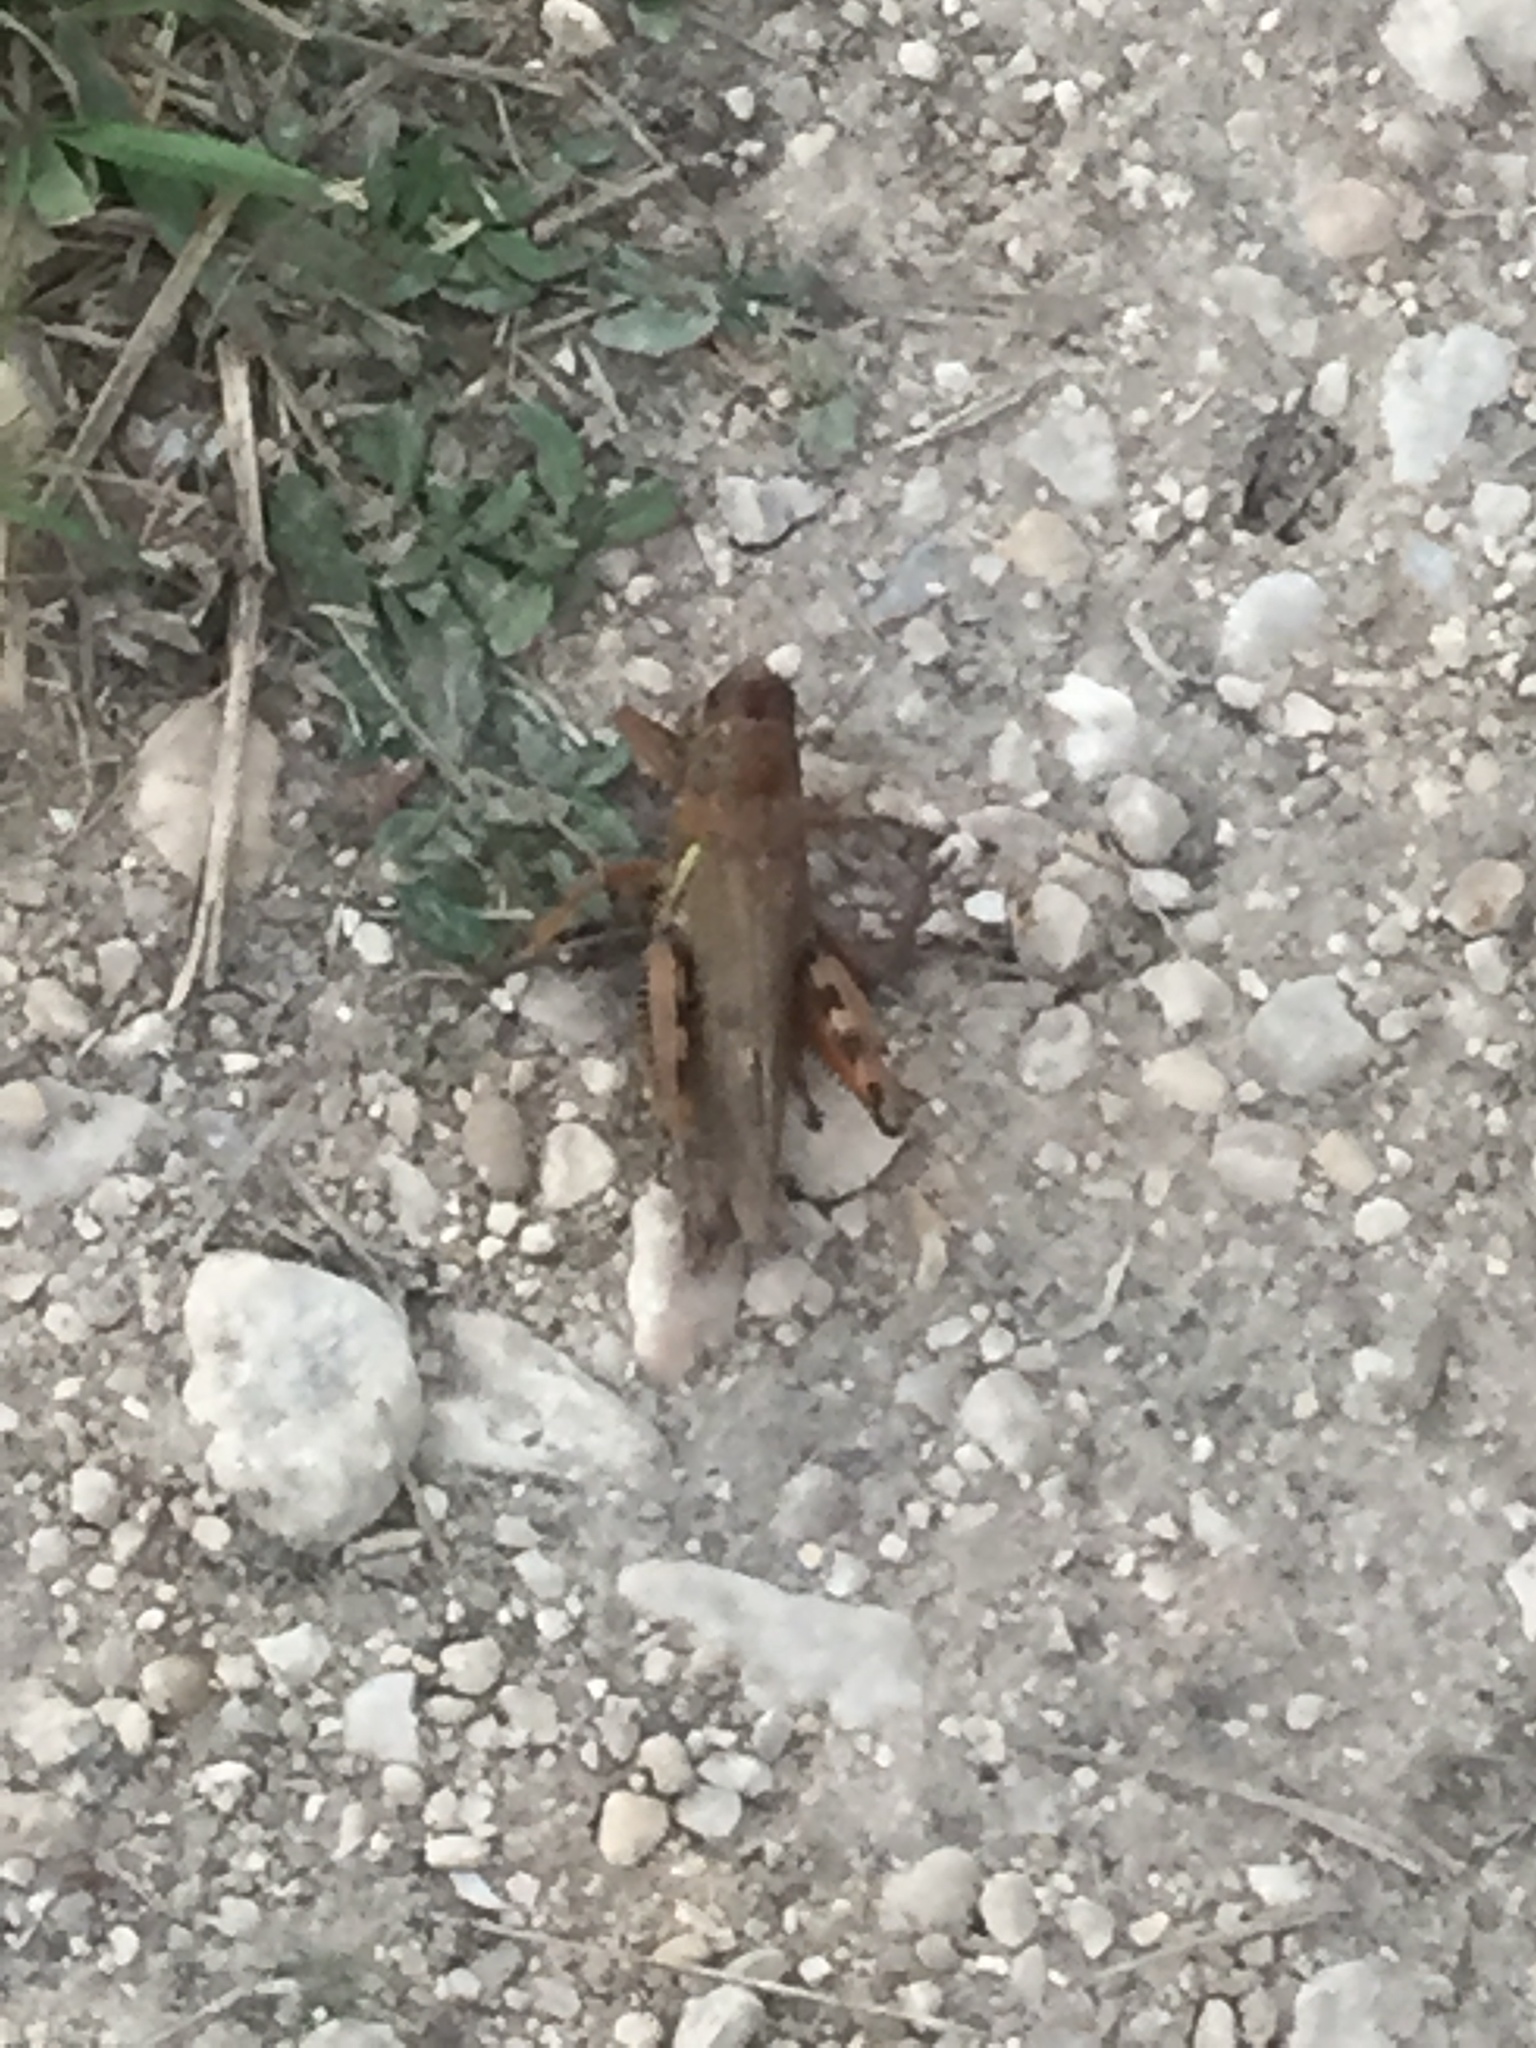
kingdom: Animalia
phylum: Arthropoda
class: Insecta
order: Orthoptera
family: Acrididae
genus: Melanoplus
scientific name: Melanoplus differentialis
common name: Differential grasshopper
